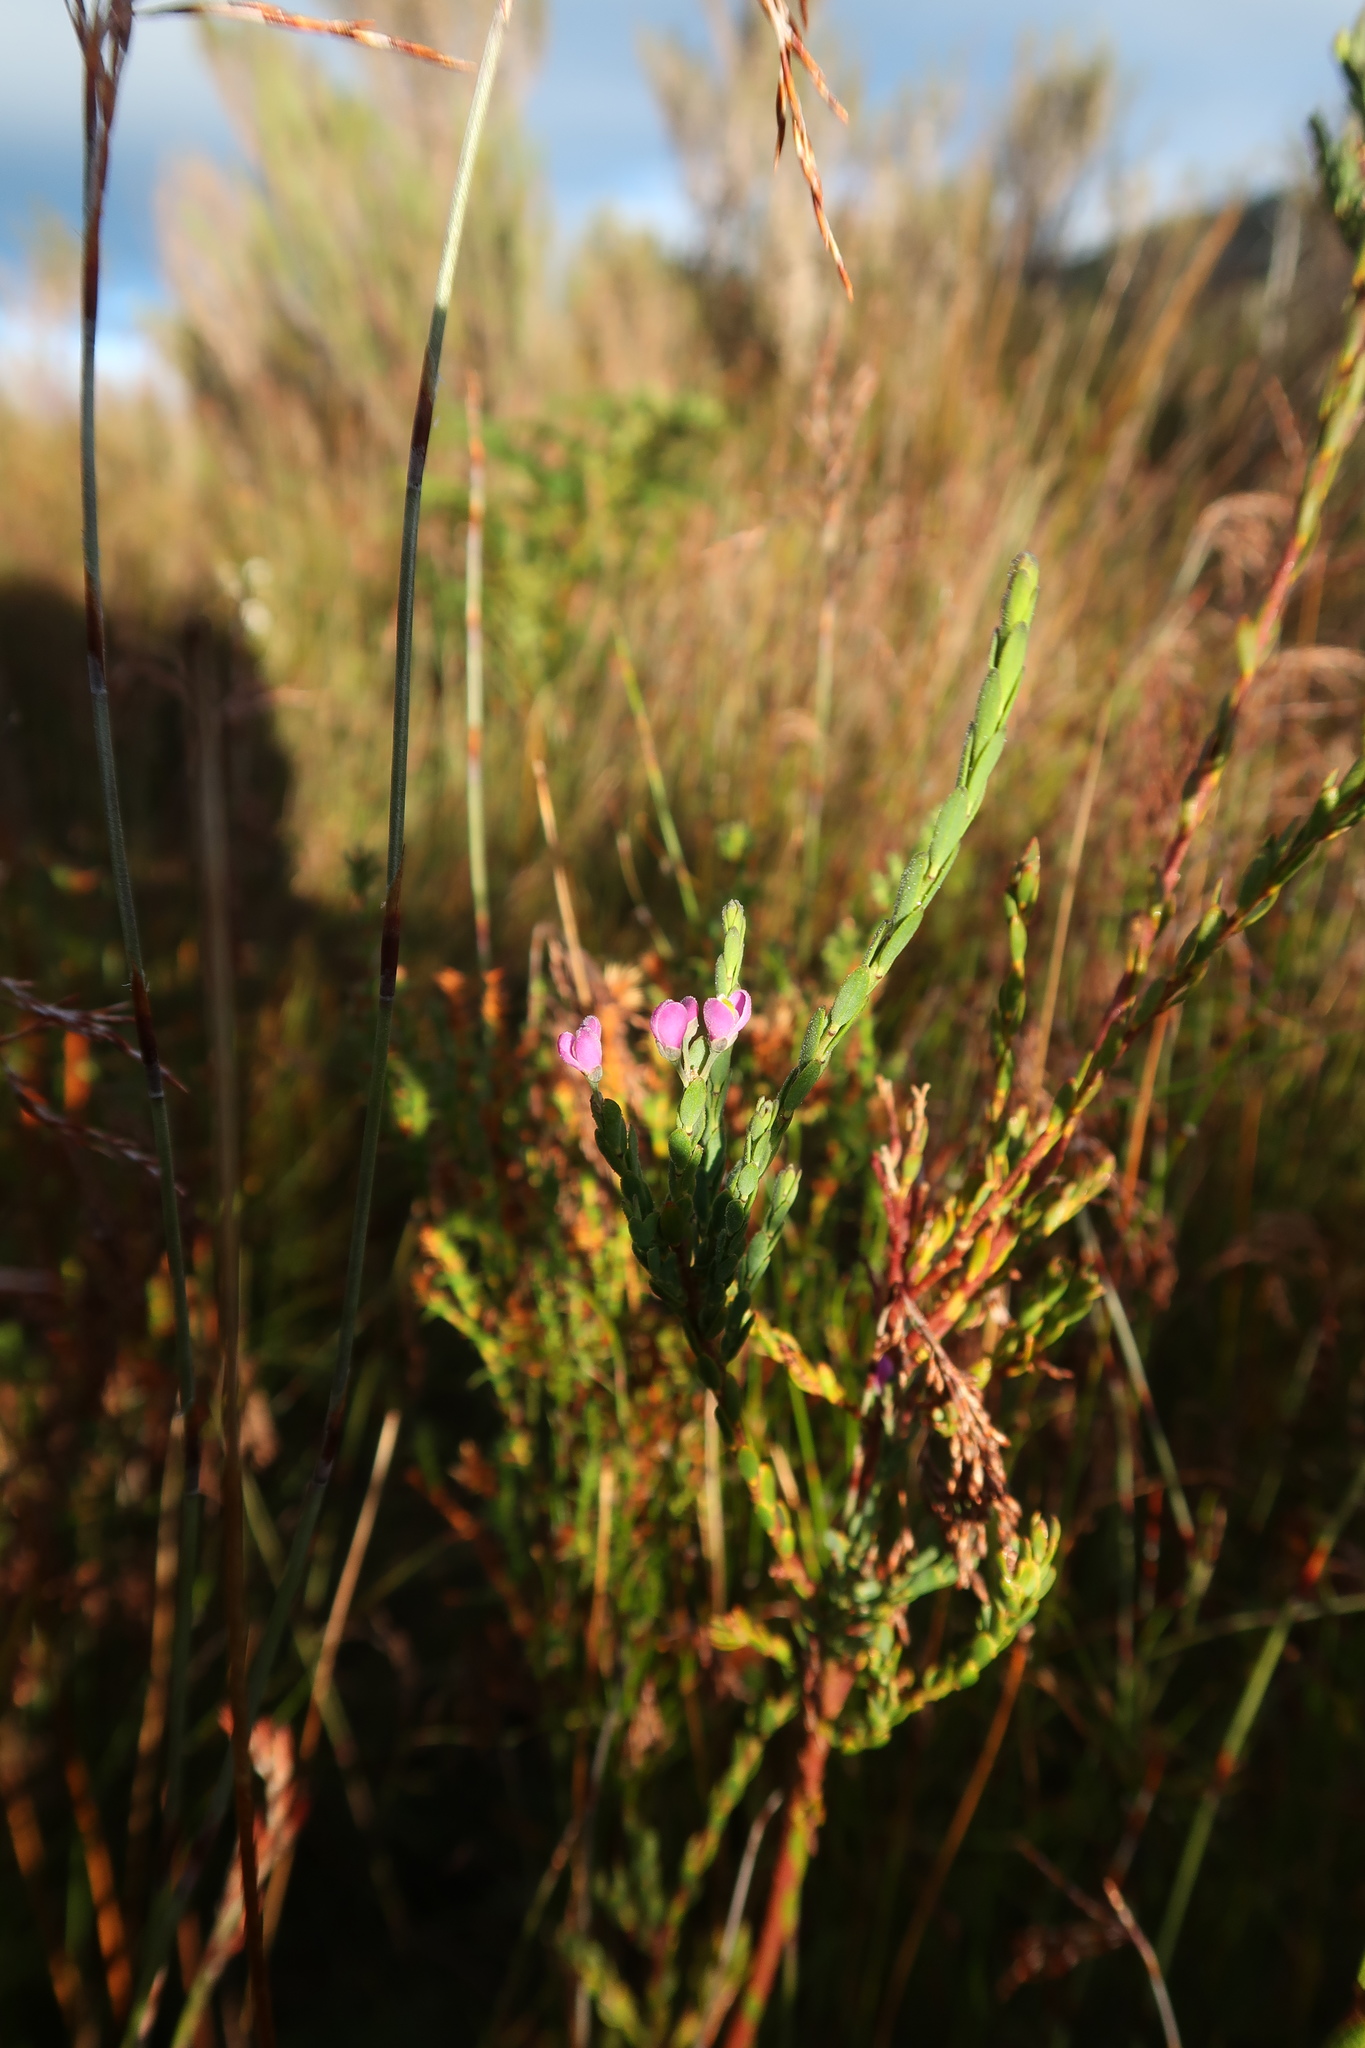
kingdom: Plantae
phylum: Tracheophyta
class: Magnoliopsida
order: Fabales
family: Polygalaceae
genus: Comesperma
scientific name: Comesperma retusum
